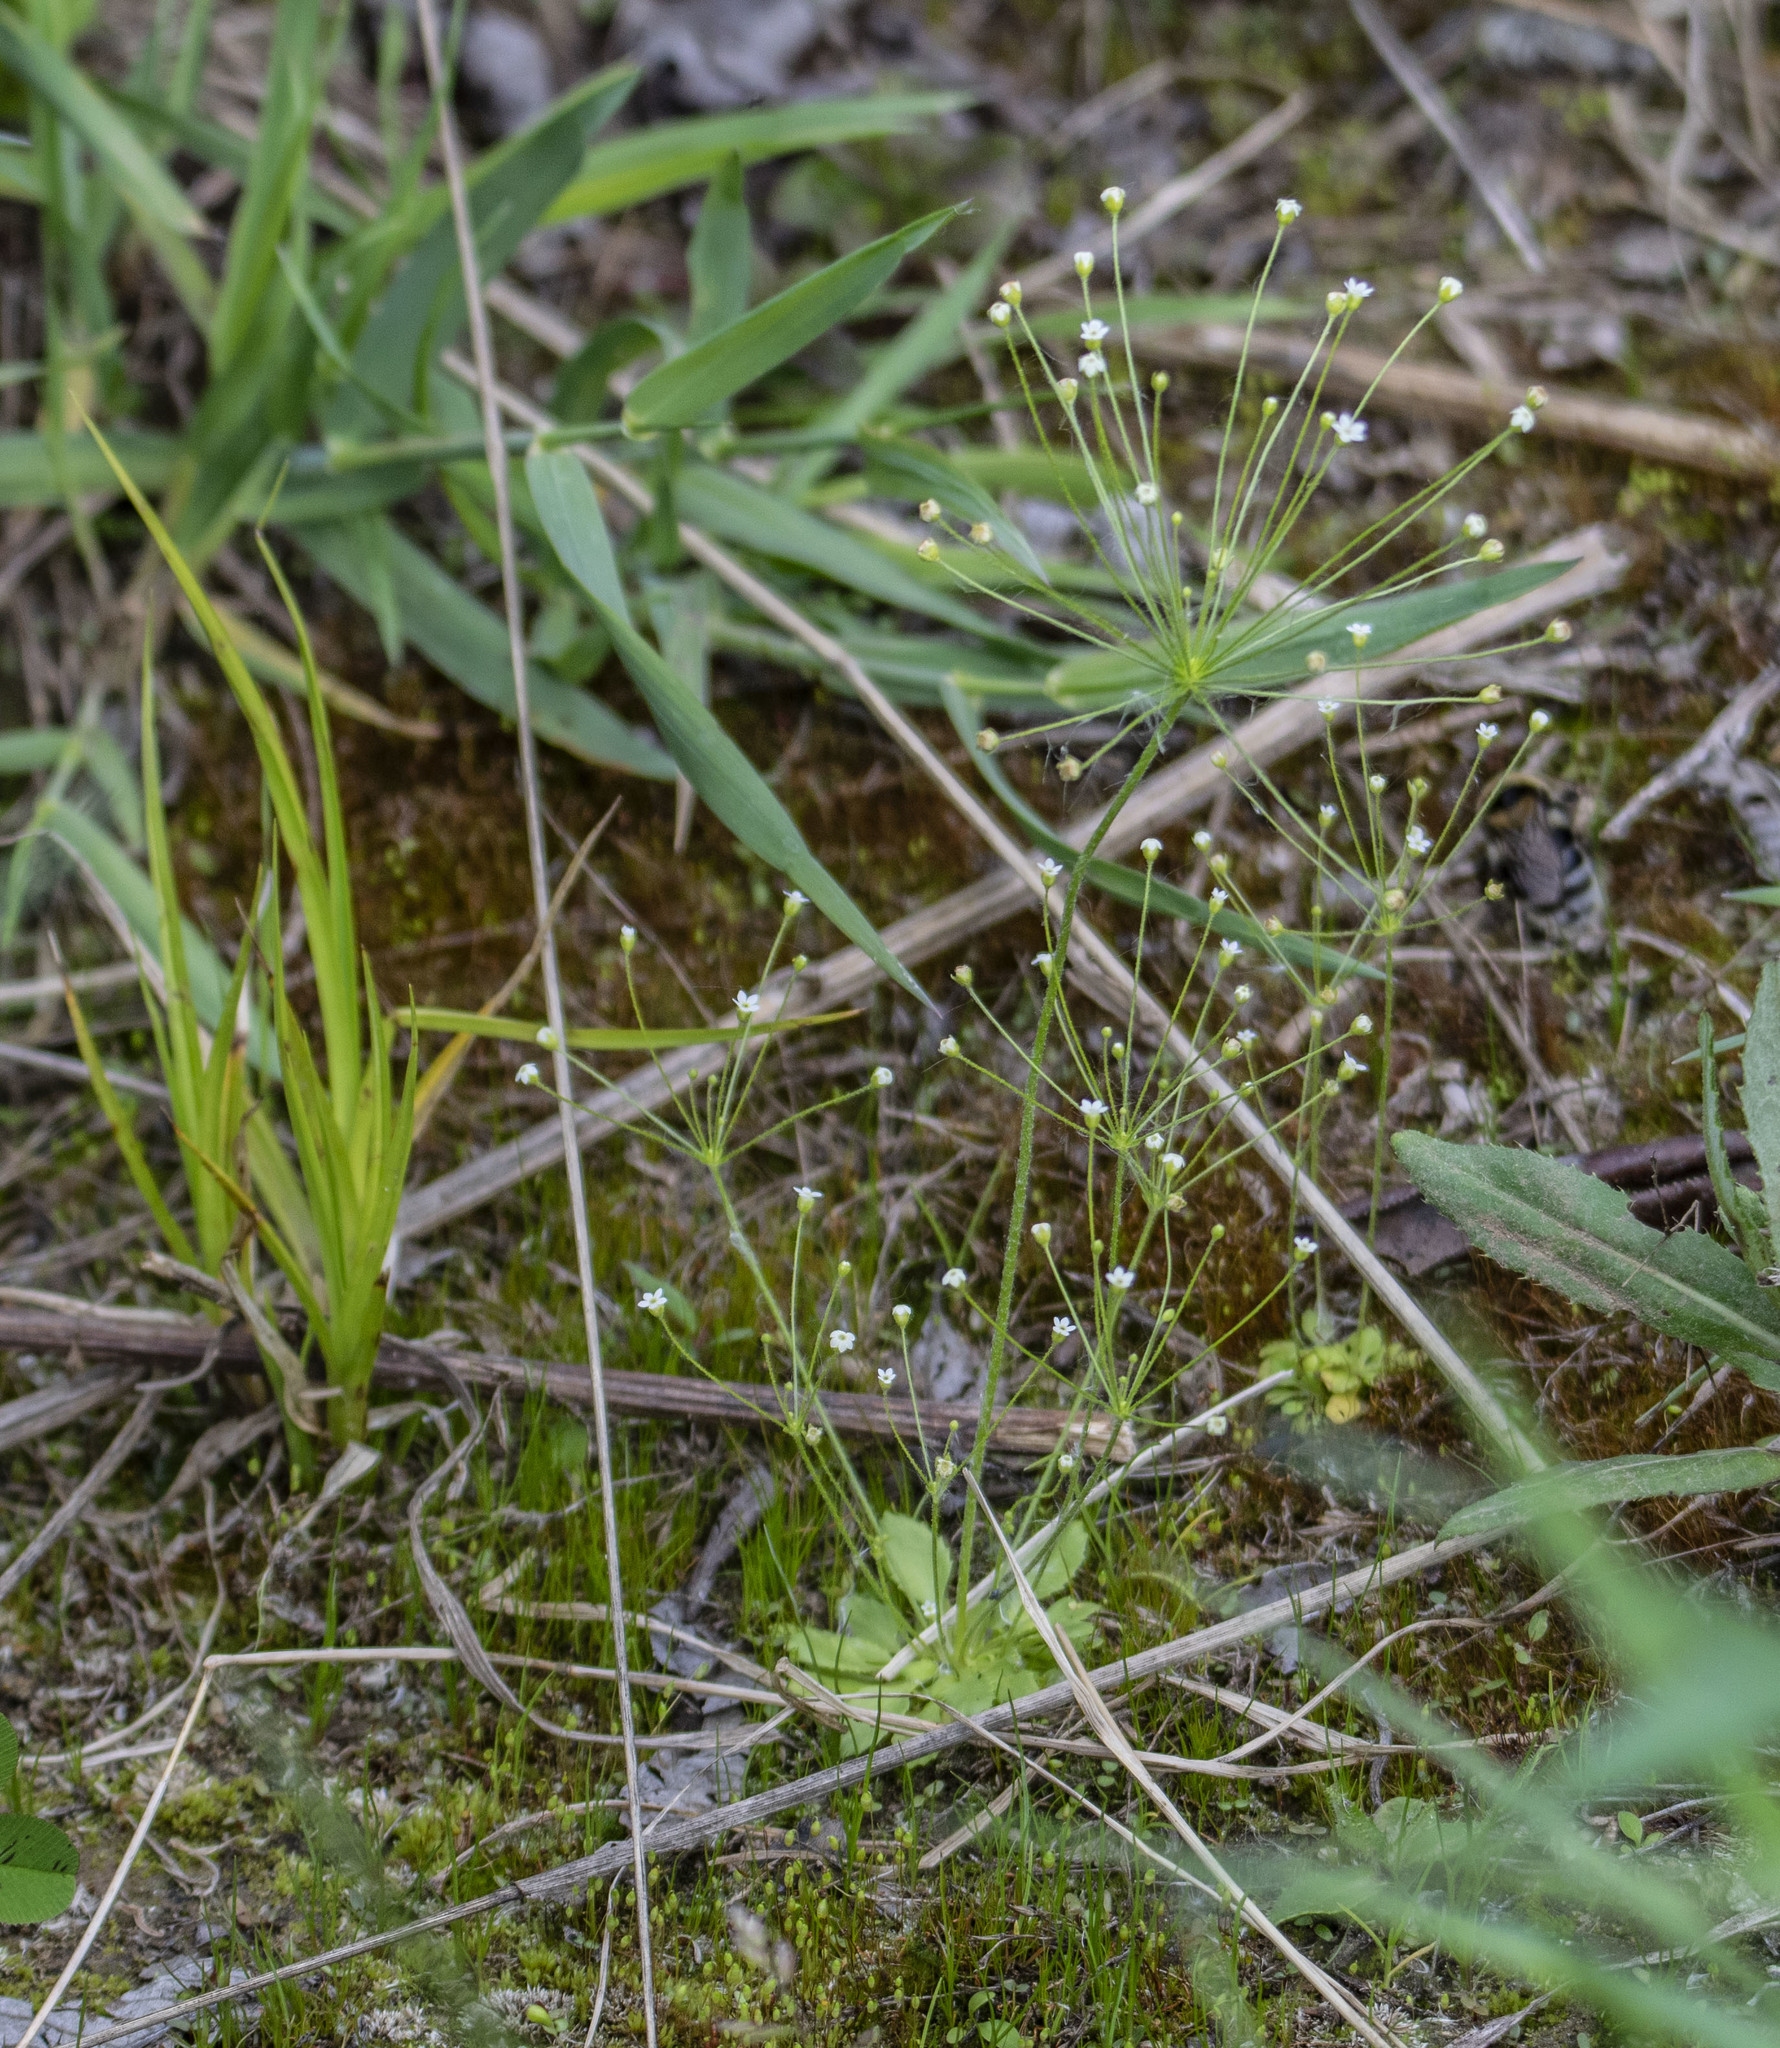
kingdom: Plantae
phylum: Tracheophyta
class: Magnoliopsida
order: Ericales
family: Primulaceae
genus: Androsace
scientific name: Androsace filiformis
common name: Filiform rock jasmine
